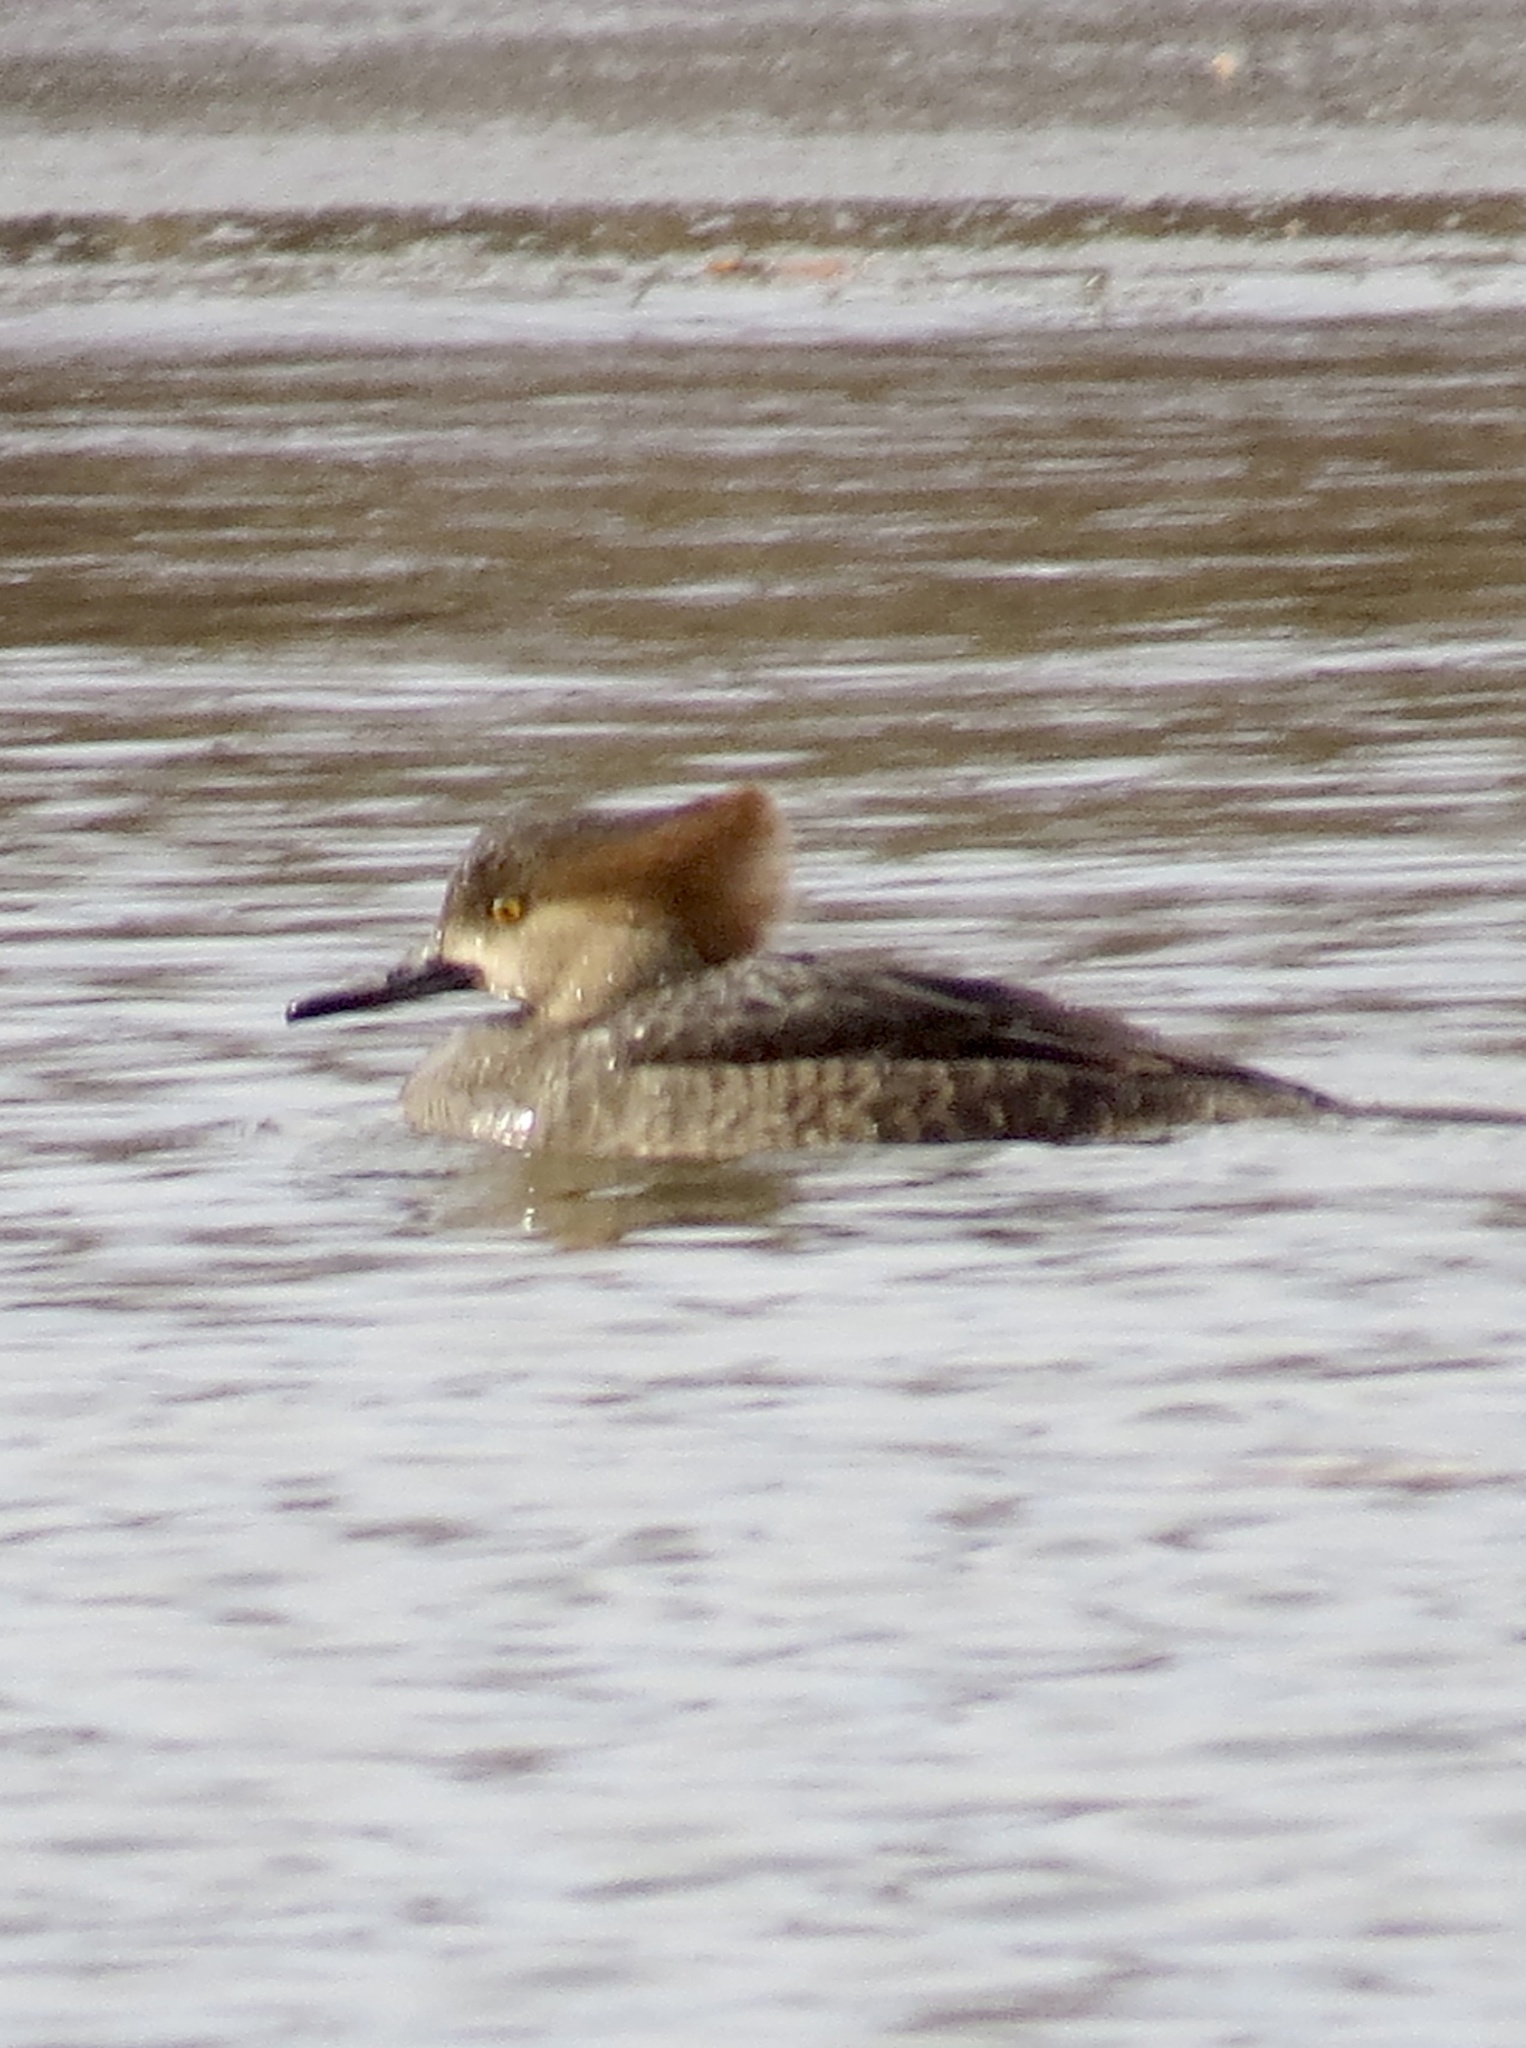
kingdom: Animalia
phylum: Chordata
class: Aves
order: Anseriformes
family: Anatidae
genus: Lophodytes
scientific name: Lophodytes cucullatus
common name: Hooded merganser
